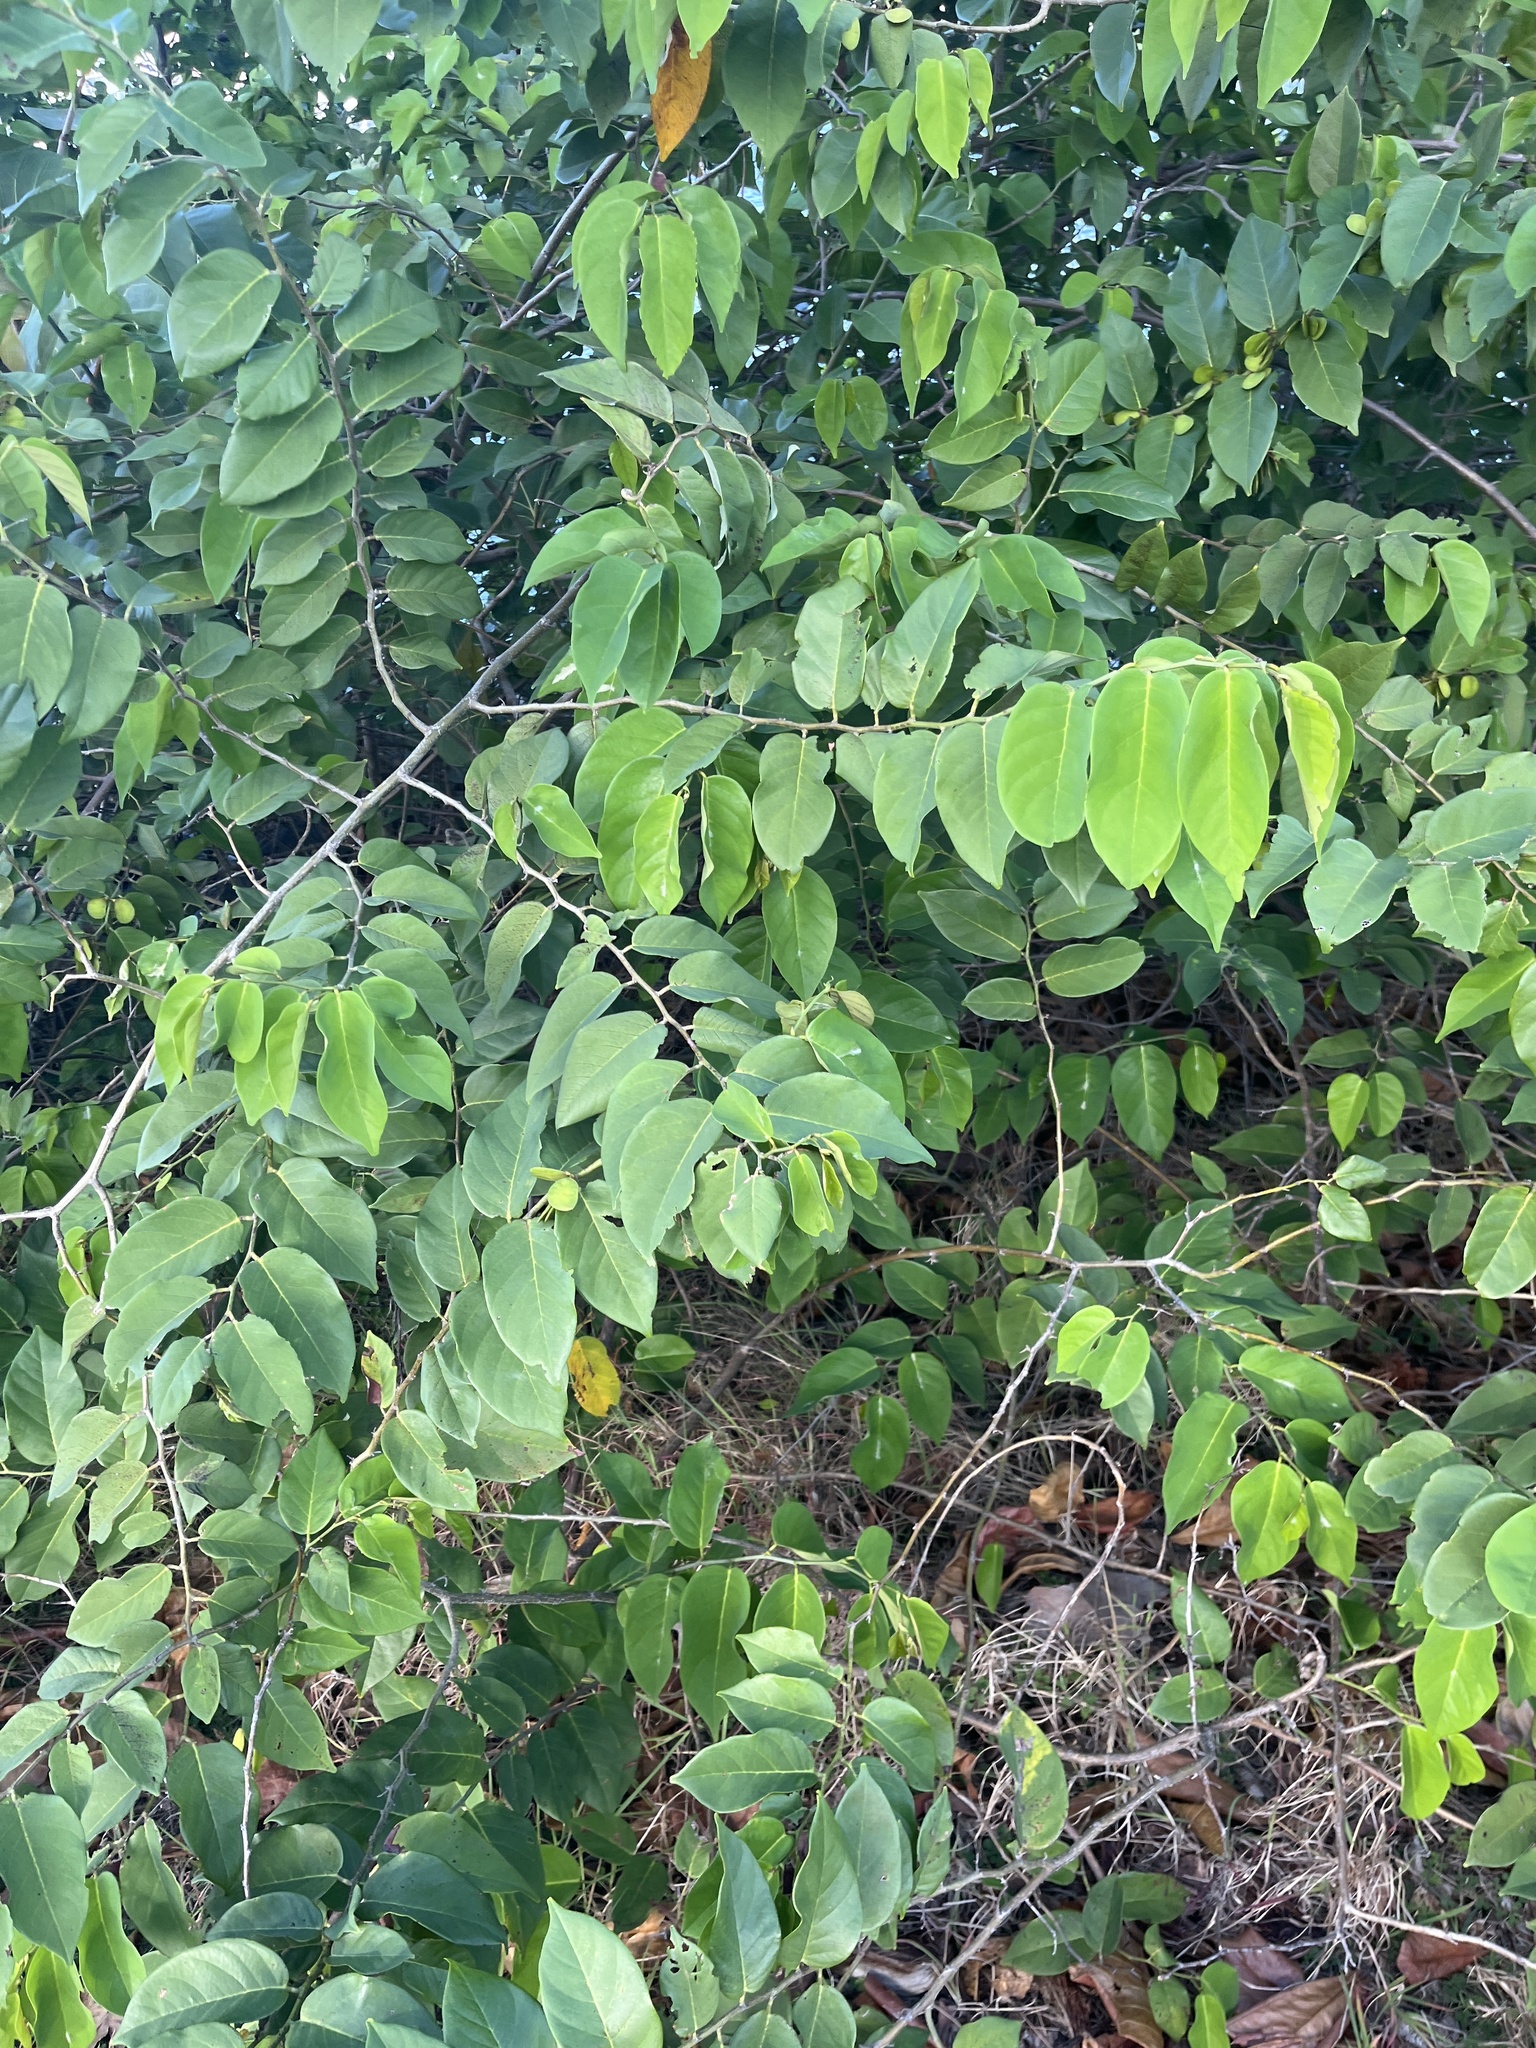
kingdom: Plantae
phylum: Tracheophyta
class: Magnoliopsida
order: Fabales
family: Fabaceae
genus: Dalbergia
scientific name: Dalbergia ecastaphyllum
